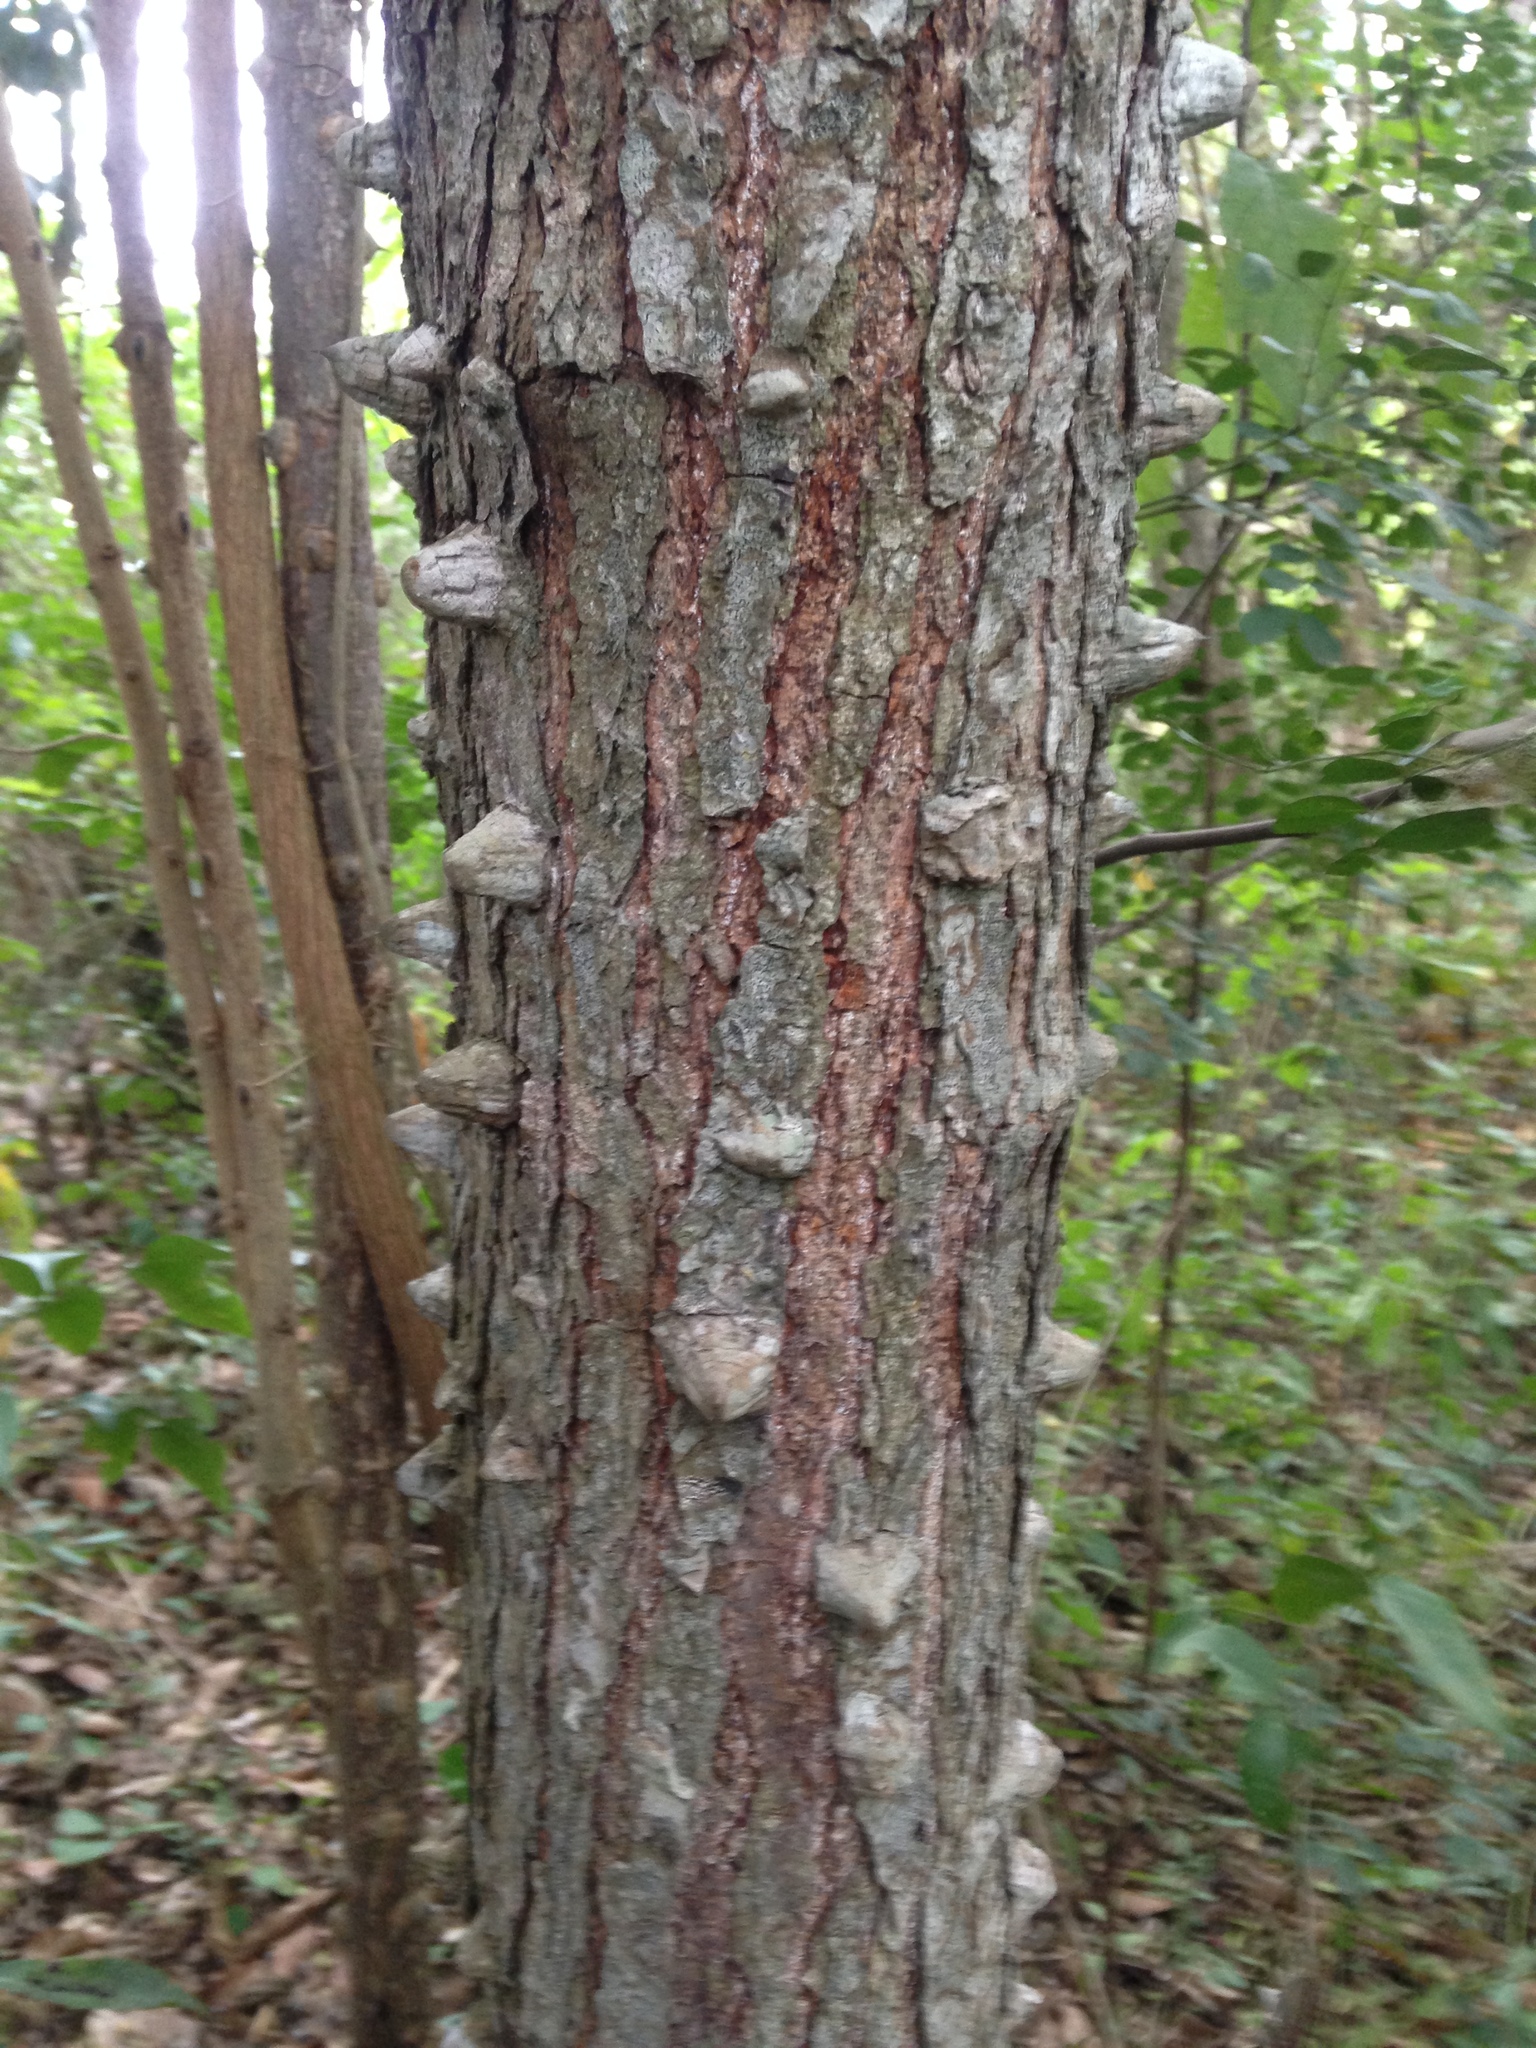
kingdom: Plantae
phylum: Tracheophyta
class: Magnoliopsida
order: Fabales
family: Fabaceae
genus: Tara
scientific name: Tara cacalaco
